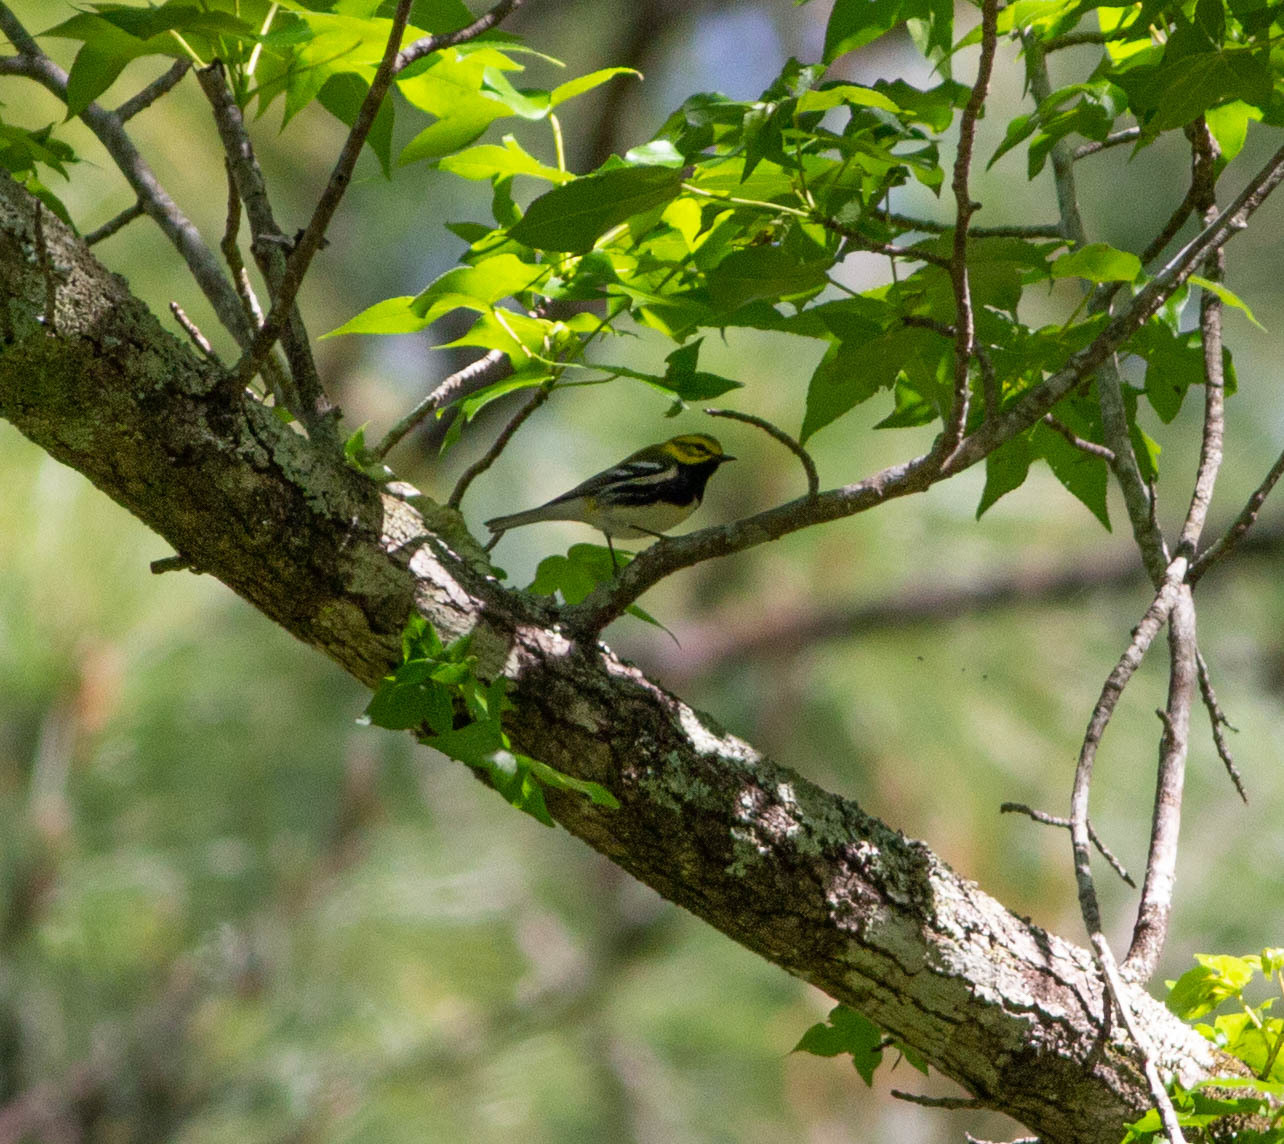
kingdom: Animalia
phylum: Chordata
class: Aves
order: Passeriformes
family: Parulidae
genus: Setophaga
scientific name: Setophaga virens
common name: Black-throated green warbler
